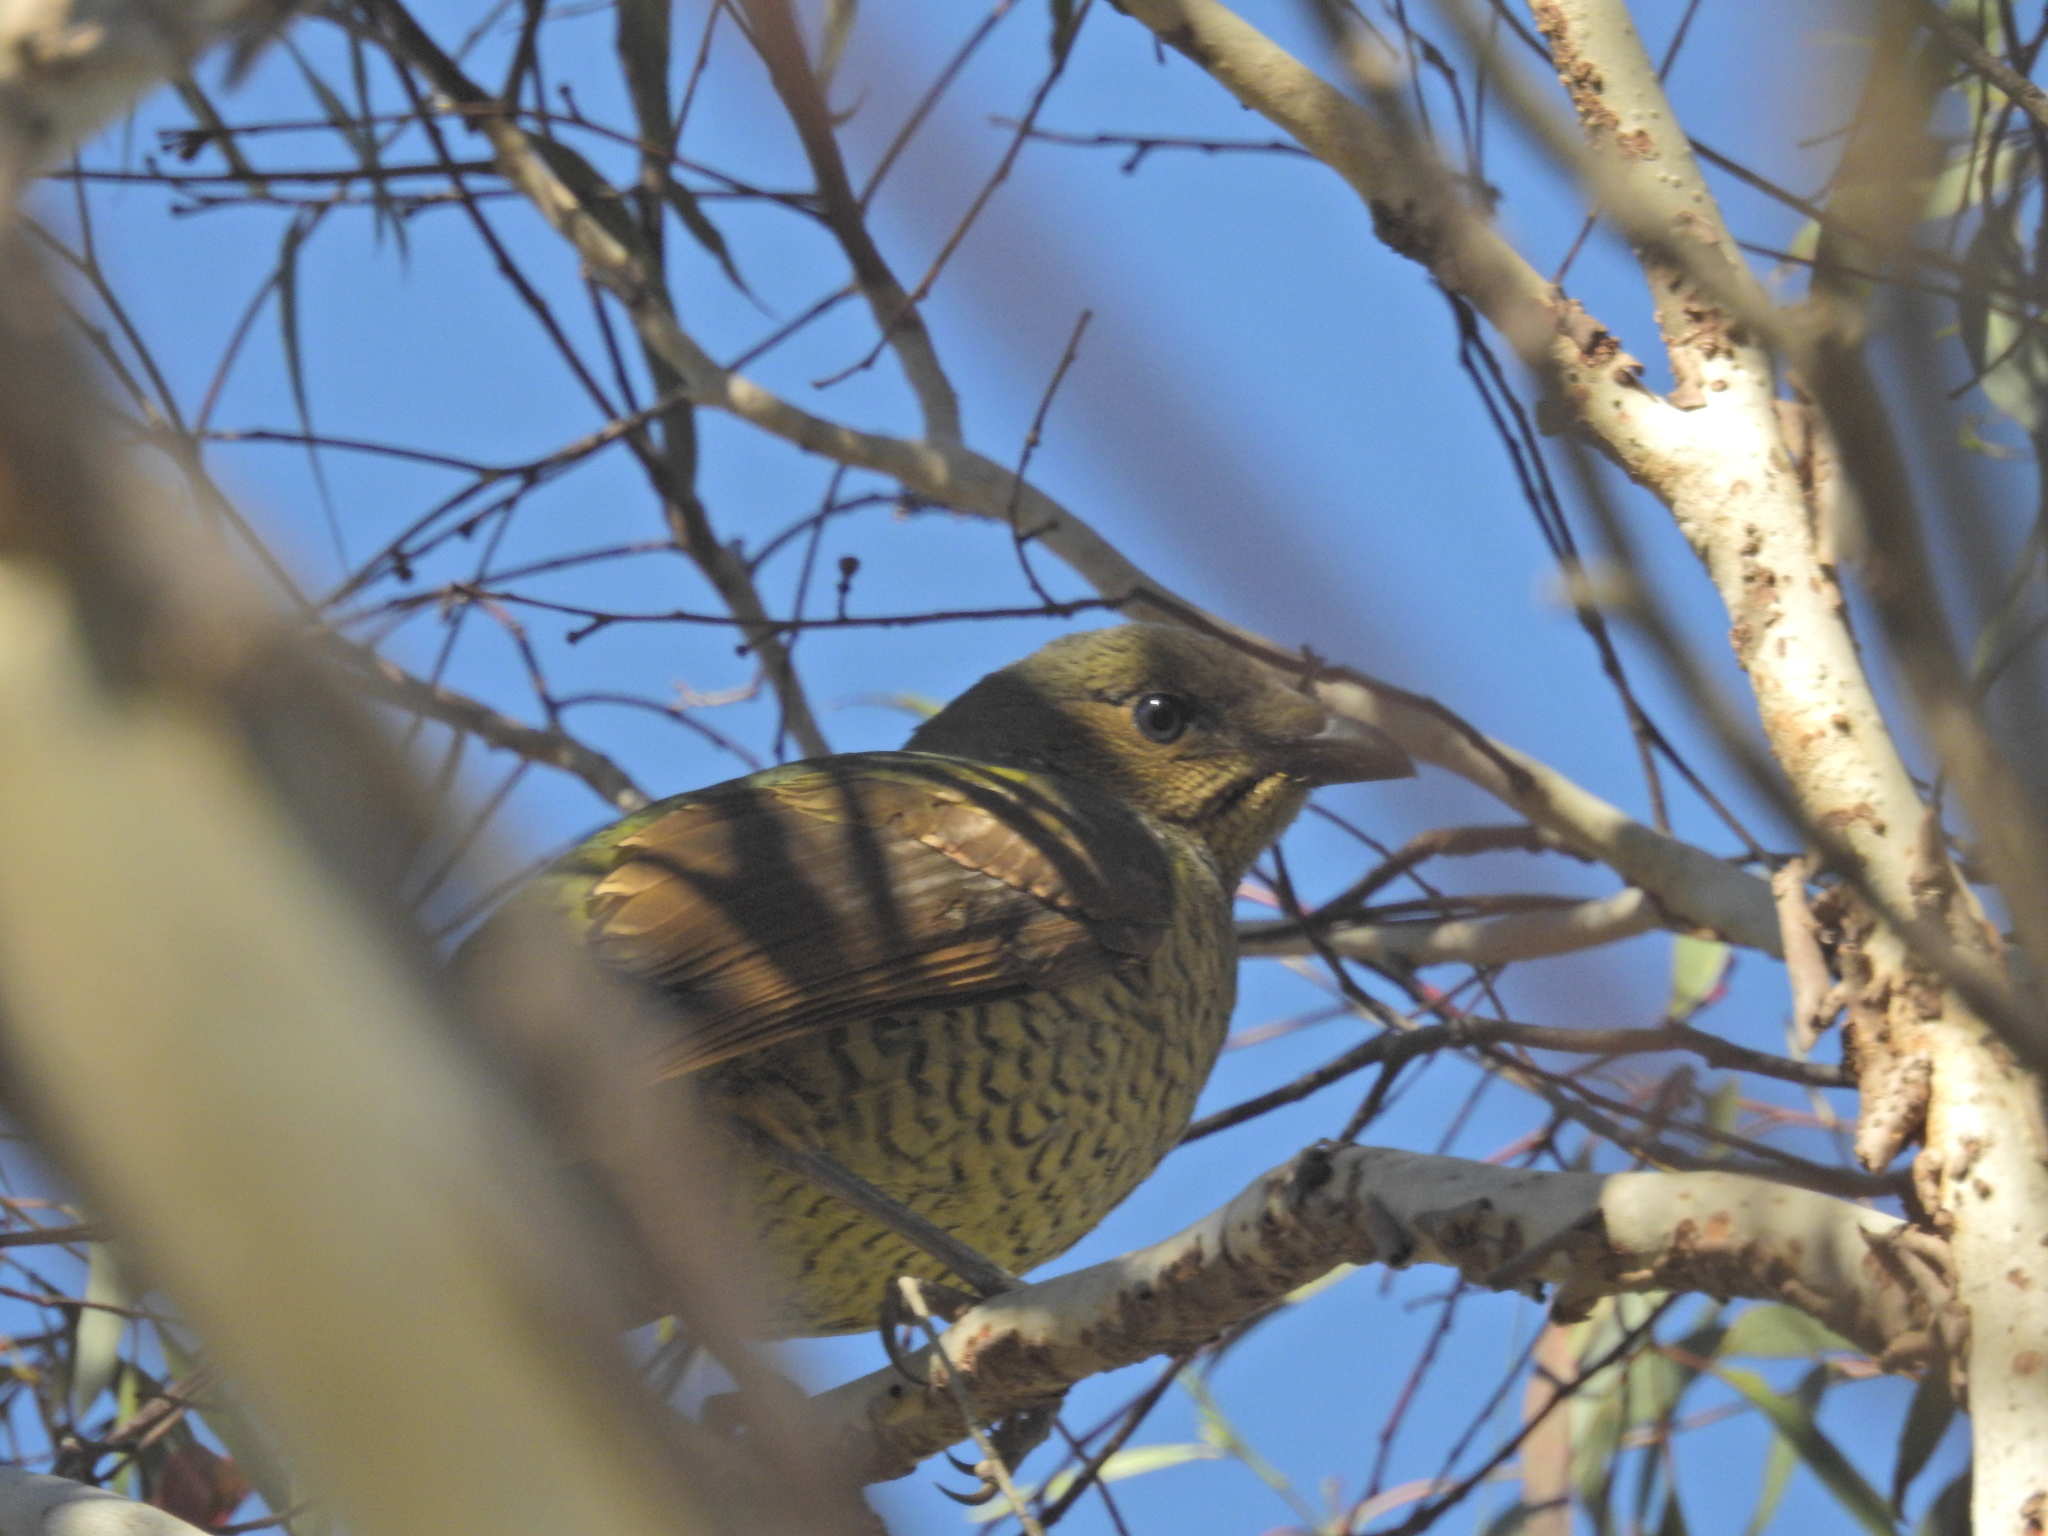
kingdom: Animalia
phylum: Chordata
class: Aves
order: Passeriformes
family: Ptilonorhynchidae
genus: Ptilonorhynchus
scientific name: Ptilonorhynchus violaceus
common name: Satin bowerbird
